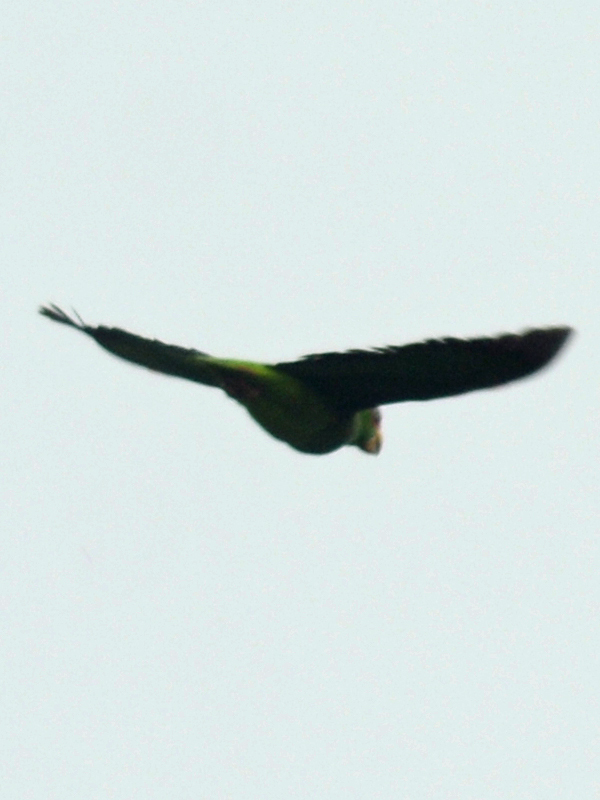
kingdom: Animalia
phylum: Chordata
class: Aves
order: Psittaciformes
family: Psittacidae
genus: Amazona
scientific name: Amazona albifrons
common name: White-fronted amazon
